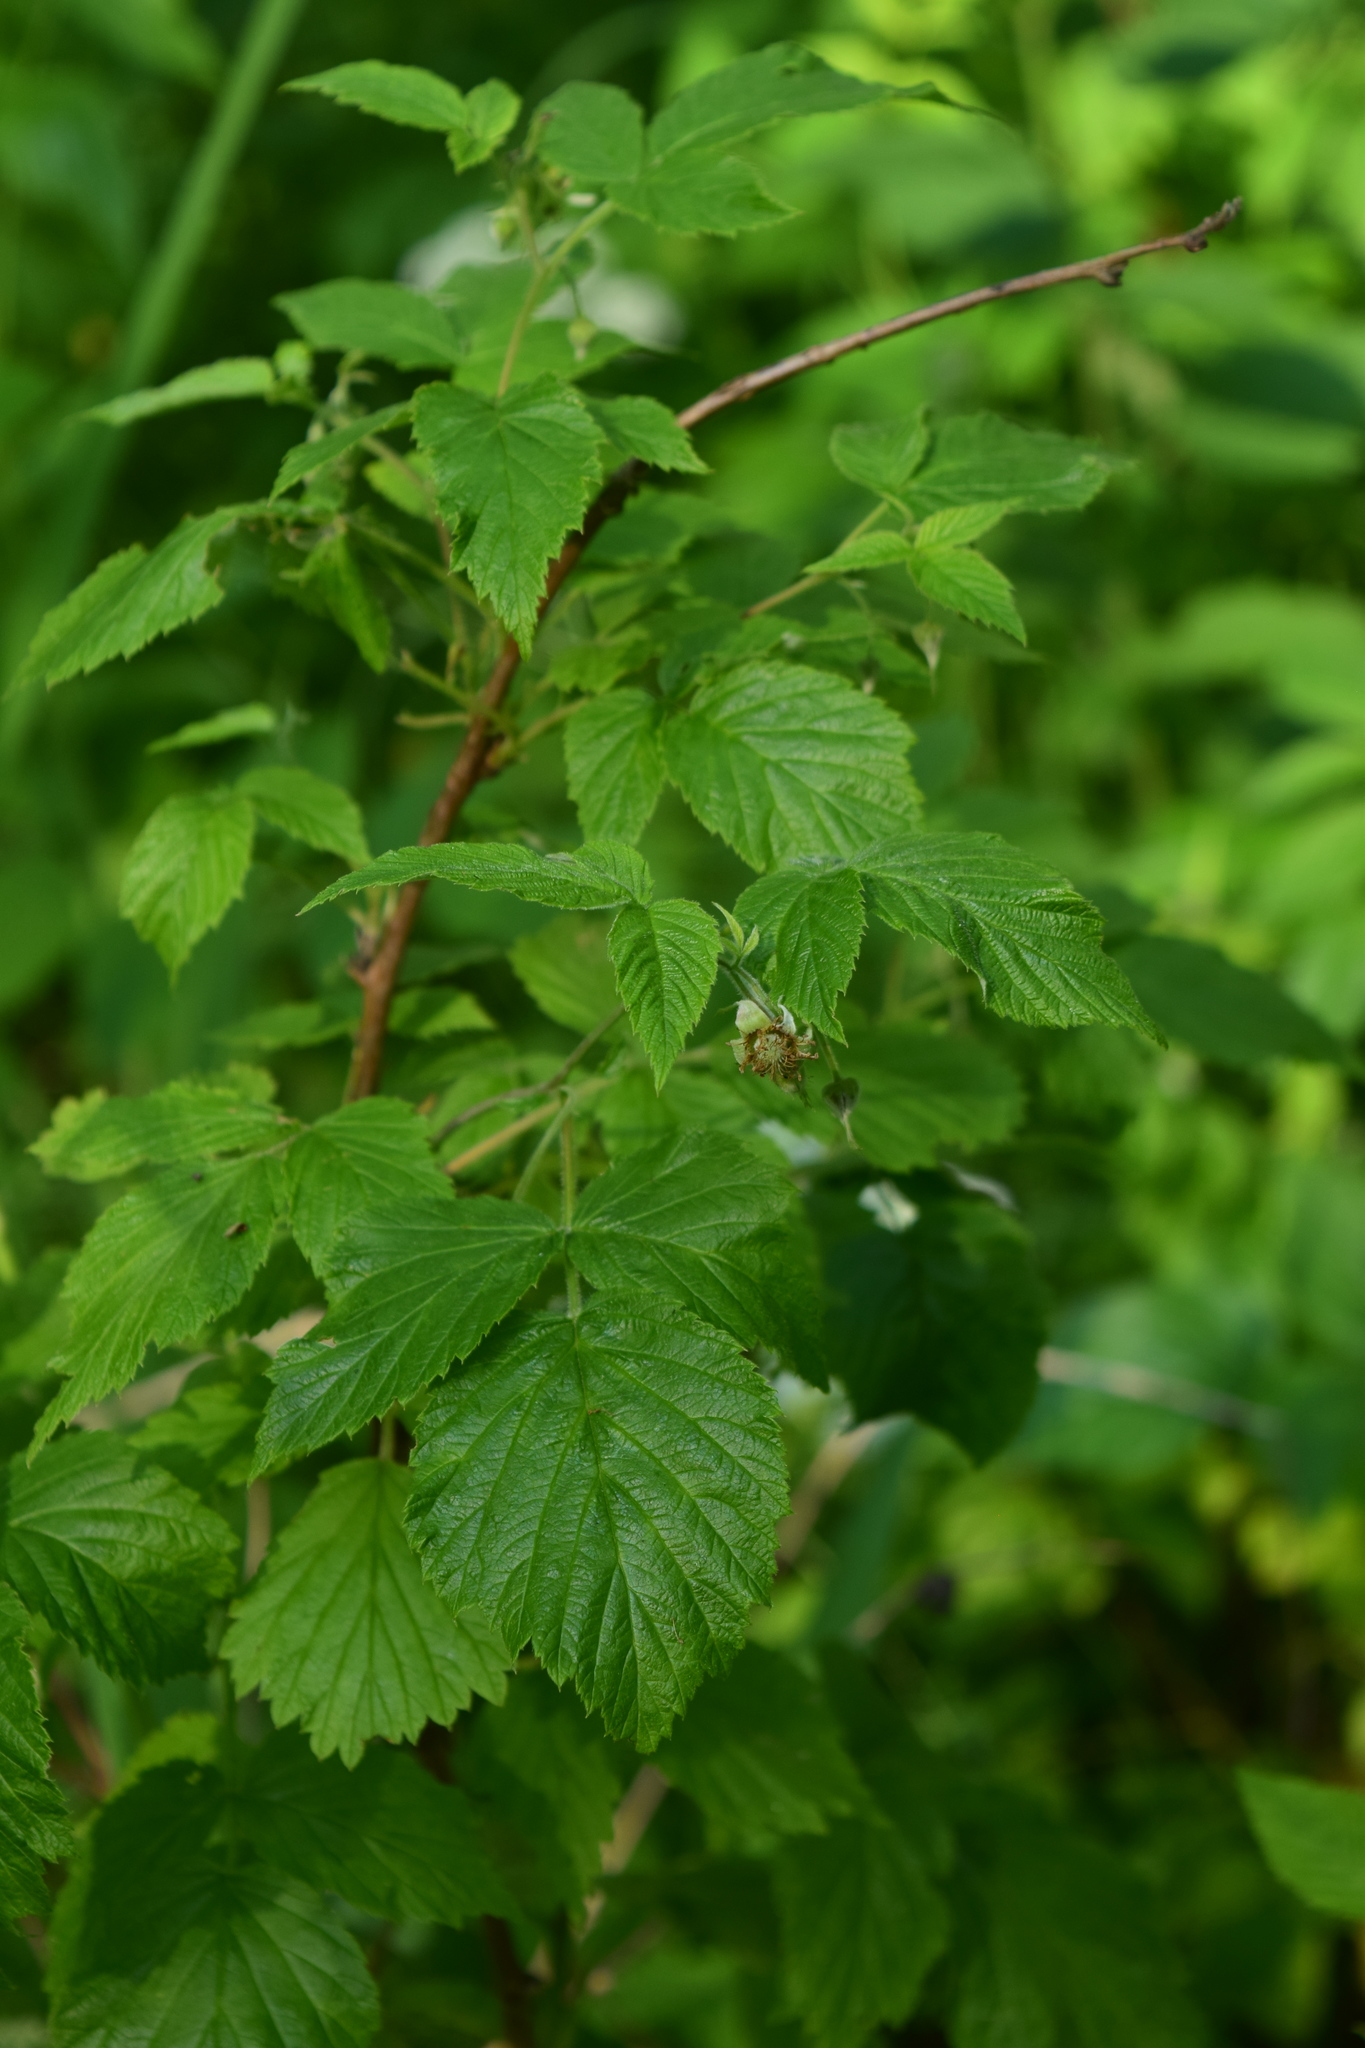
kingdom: Plantae
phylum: Tracheophyta
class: Magnoliopsida
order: Rosales
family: Rosaceae
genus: Rubus
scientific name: Rubus idaeus
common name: Raspberry
